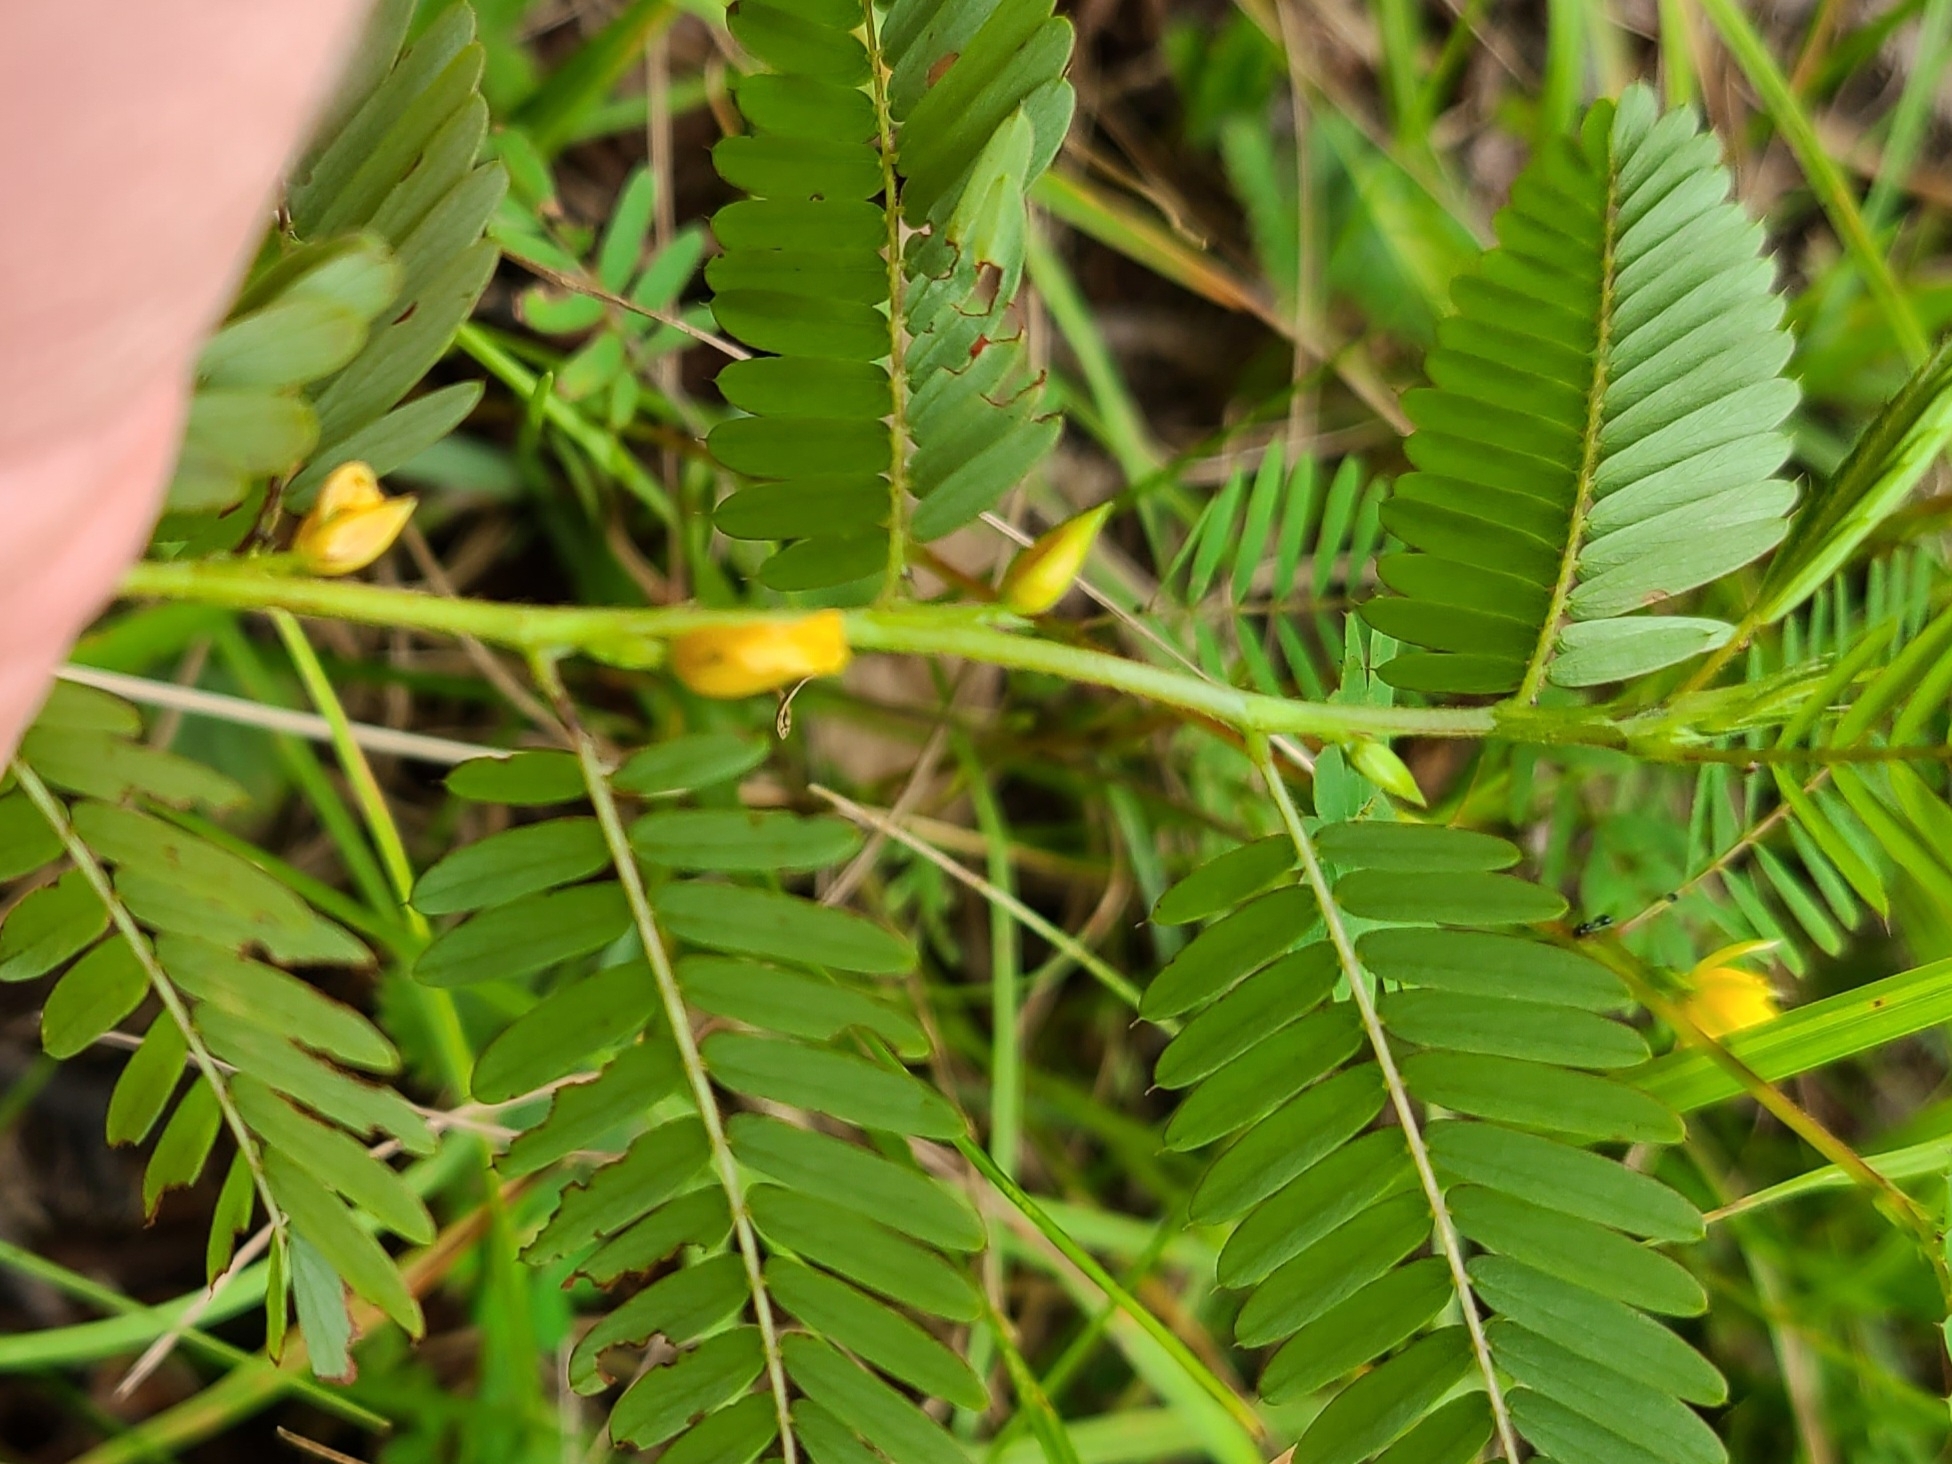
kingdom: Plantae
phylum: Tracheophyta
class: Magnoliopsida
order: Fabales
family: Fabaceae
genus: Chamaecrista
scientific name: Chamaecrista nictitans
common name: Sensitive cassia
